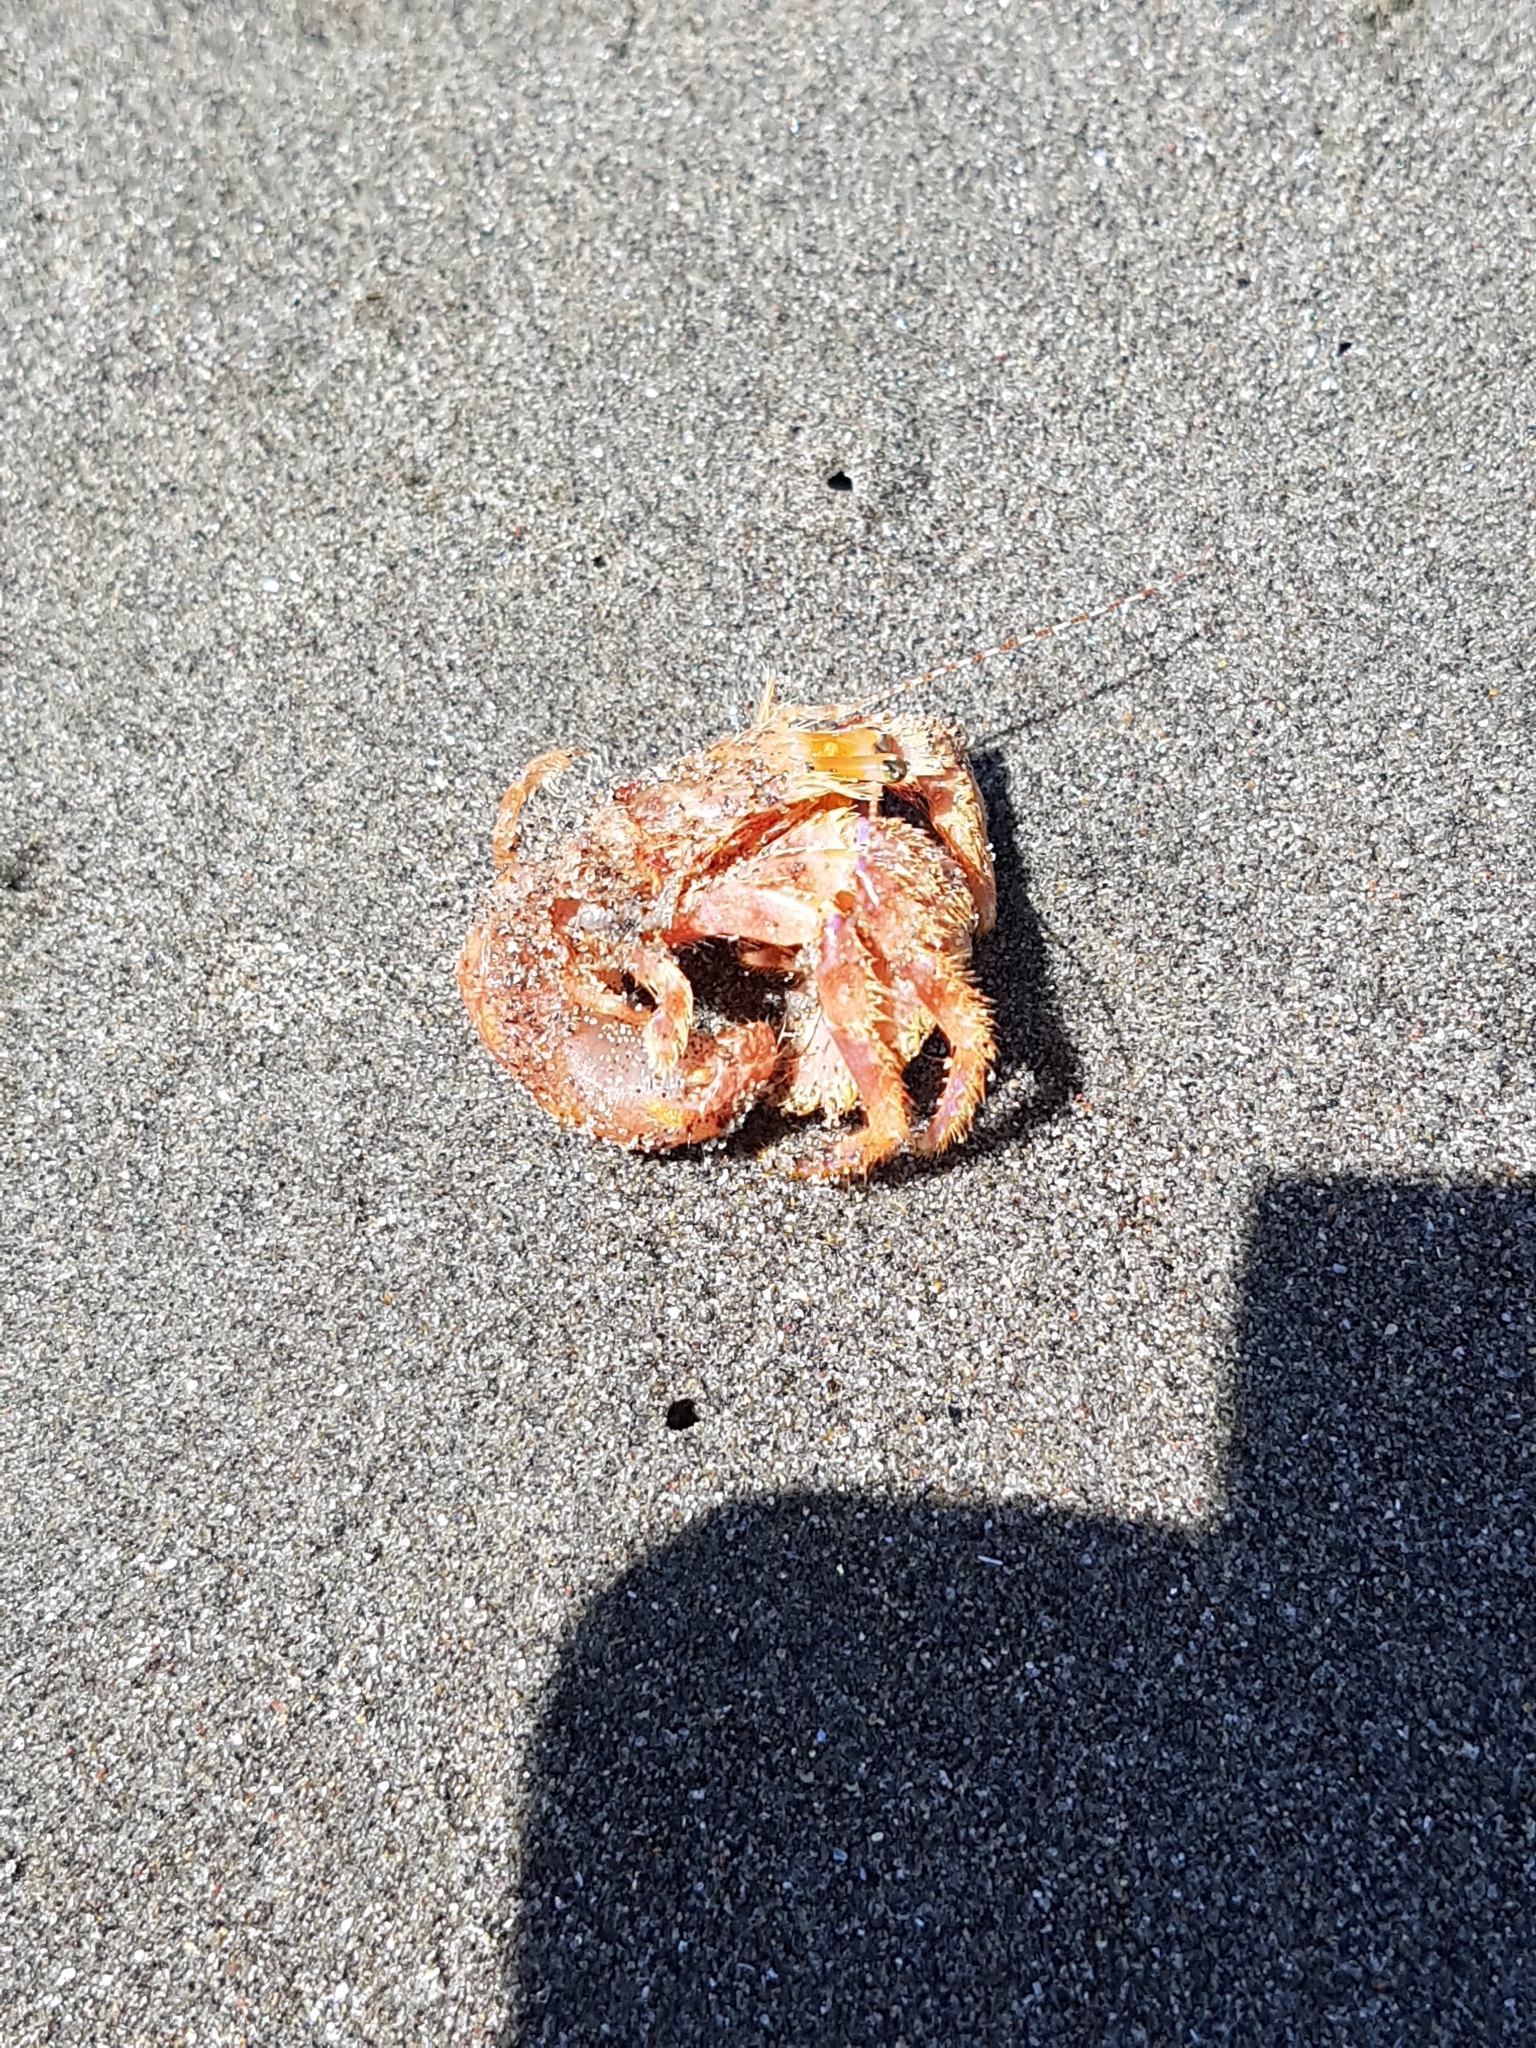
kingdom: Animalia
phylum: Arthropoda
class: Malacostraca
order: Decapoda
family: Paguridae
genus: Diacanthurus
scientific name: Diacanthurus spinulimanus
